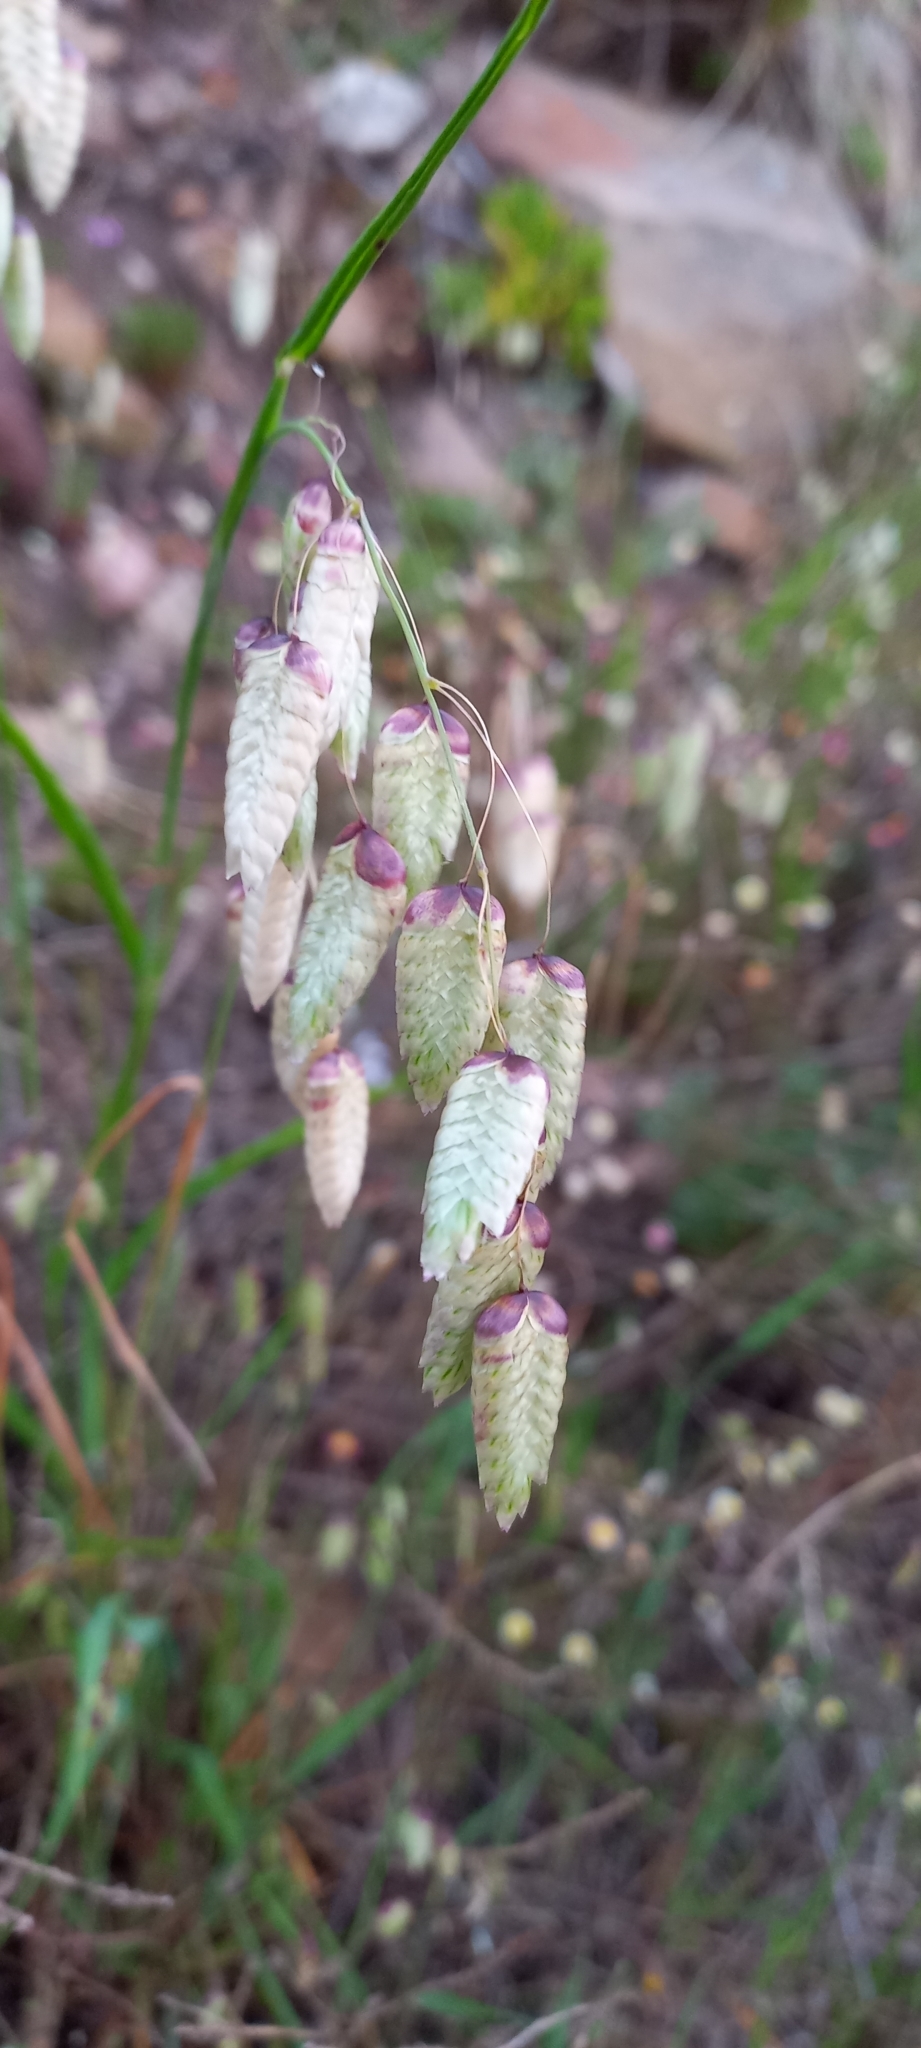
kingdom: Plantae
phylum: Tracheophyta
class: Liliopsida
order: Poales
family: Poaceae
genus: Briza
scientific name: Briza maxima
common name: Big quakinggrass
